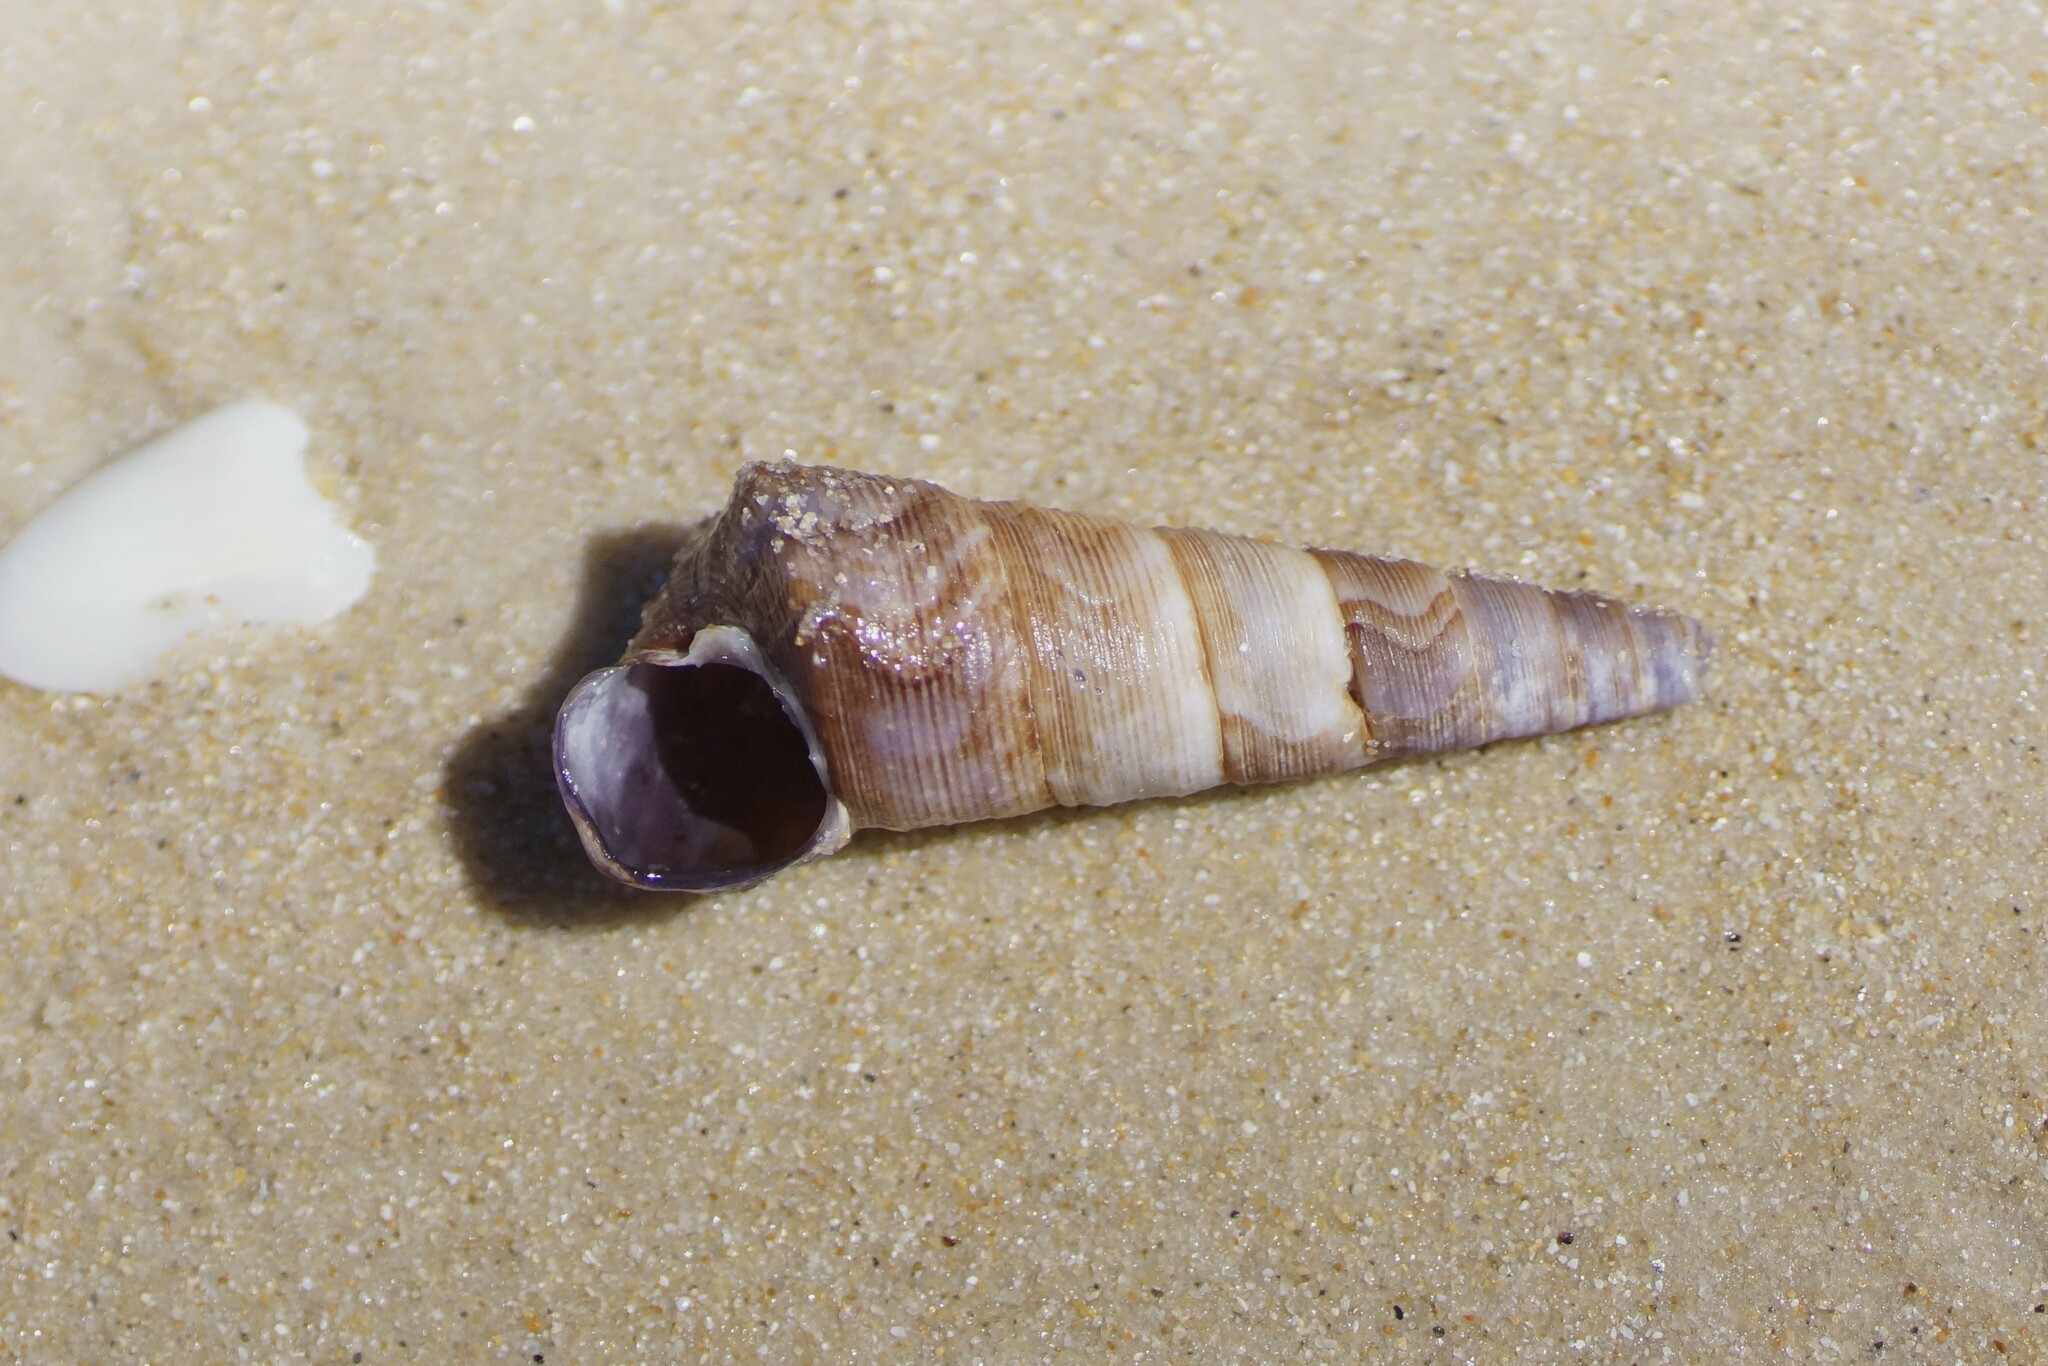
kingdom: Animalia
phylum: Mollusca
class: Gastropoda
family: Turritellidae
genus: Maoricolpus
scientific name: Maoricolpus roseus
